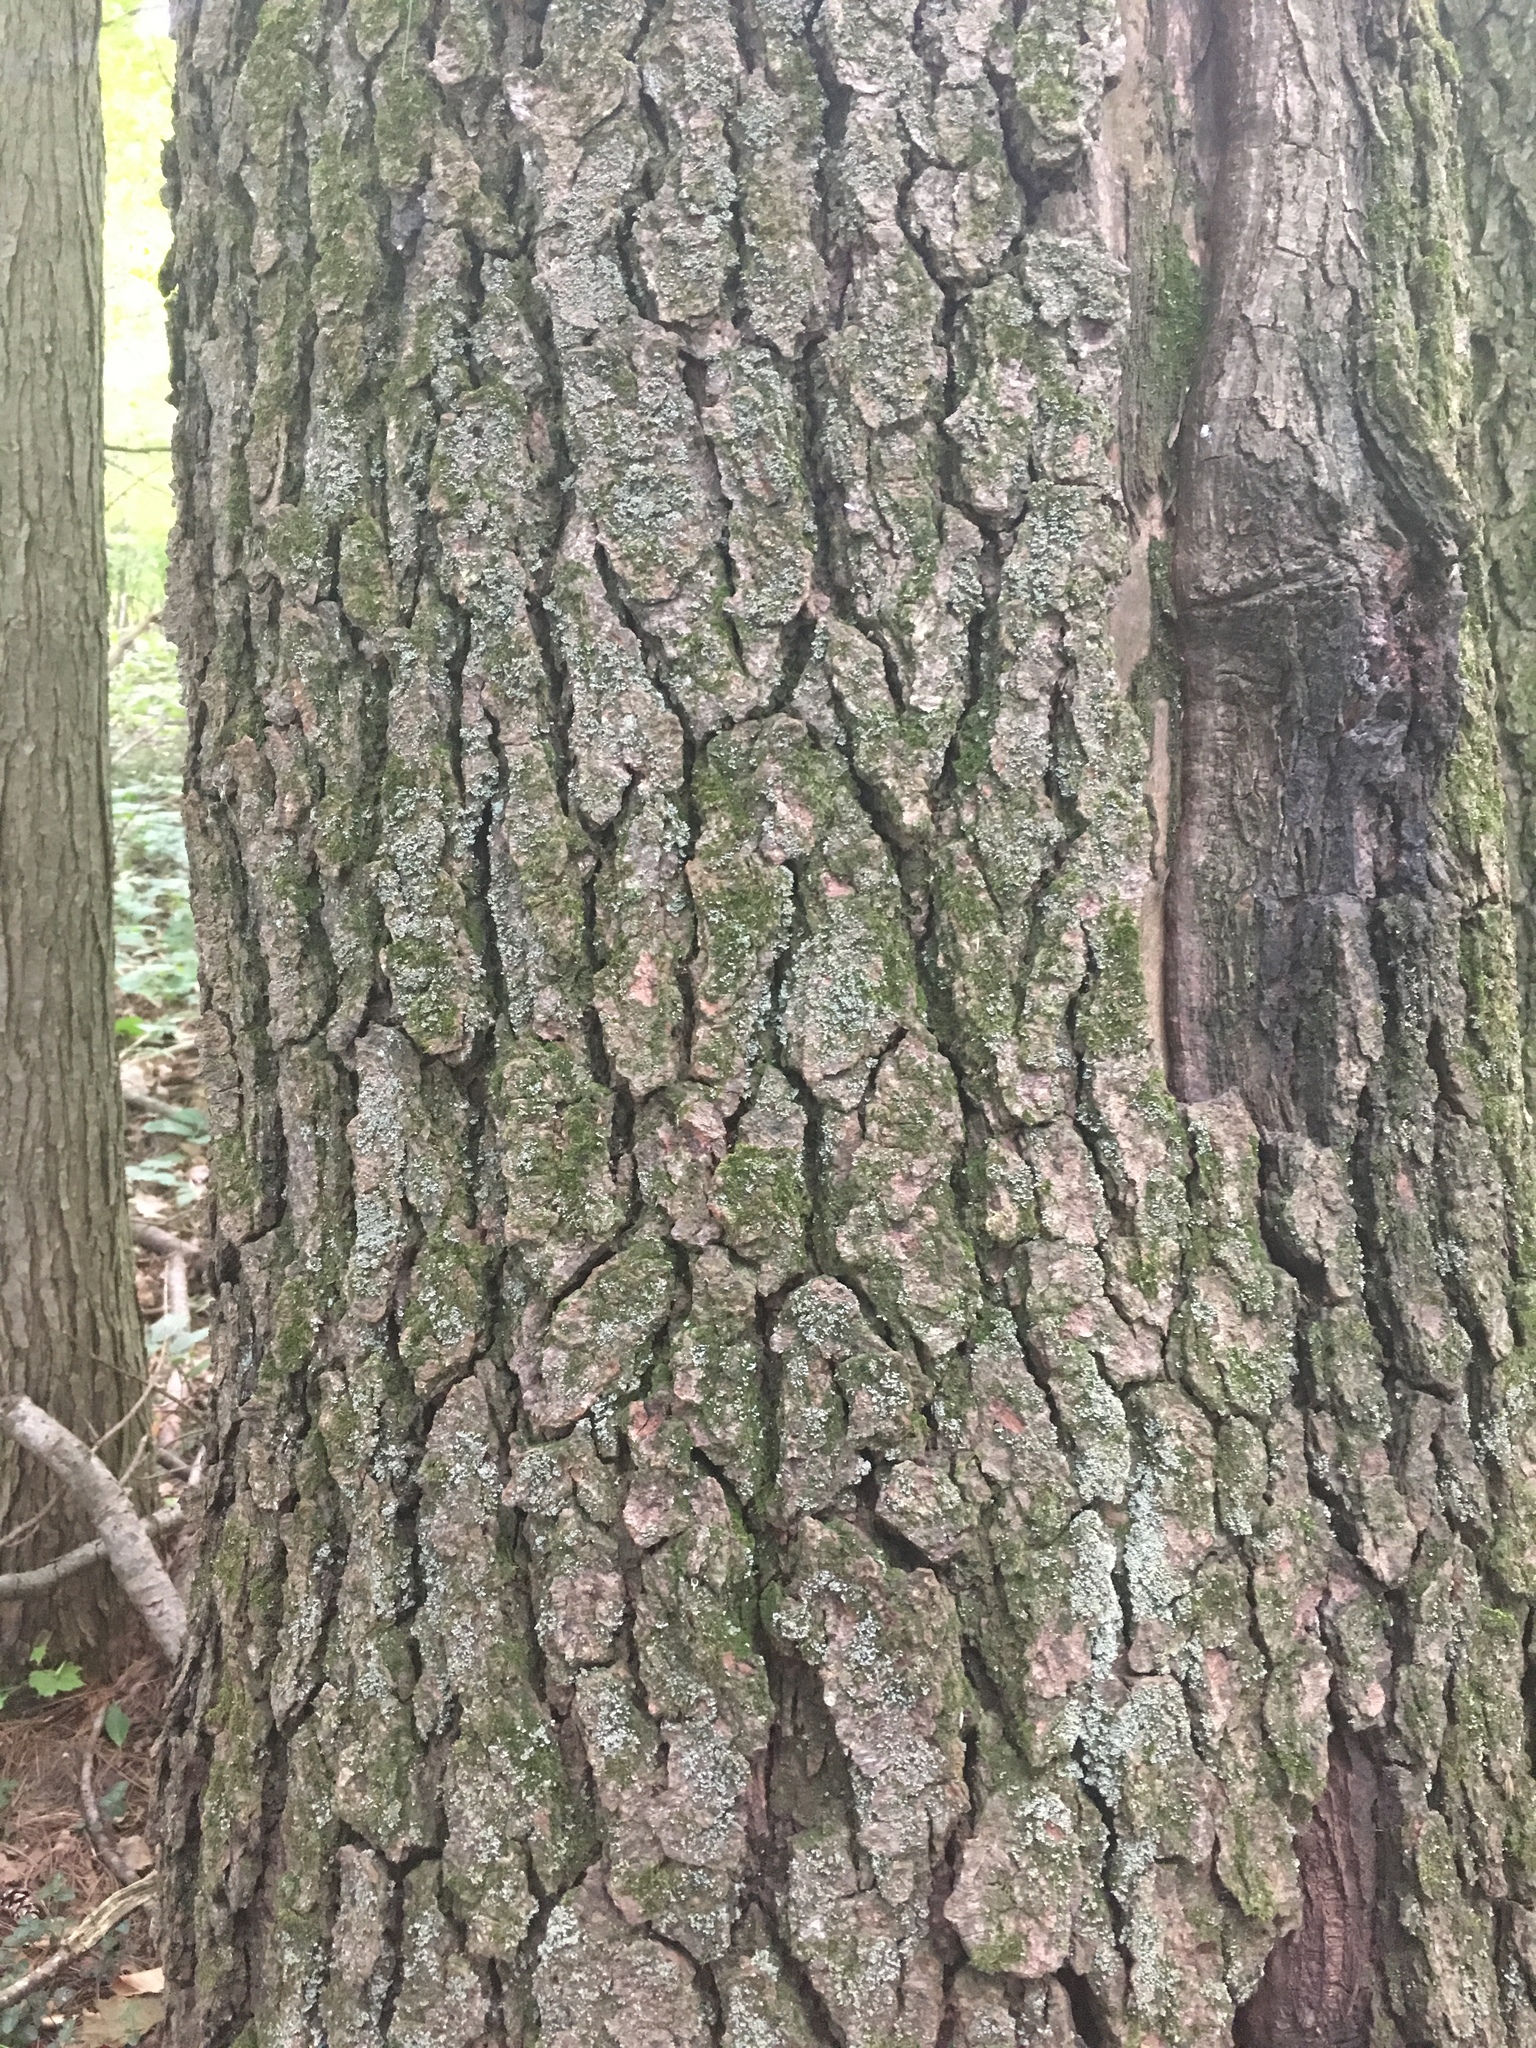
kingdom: Plantae
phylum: Tracheophyta
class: Magnoliopsida
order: Fagales
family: Fagaceae
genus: Quercus
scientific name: Quercus velutina
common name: Black oak
